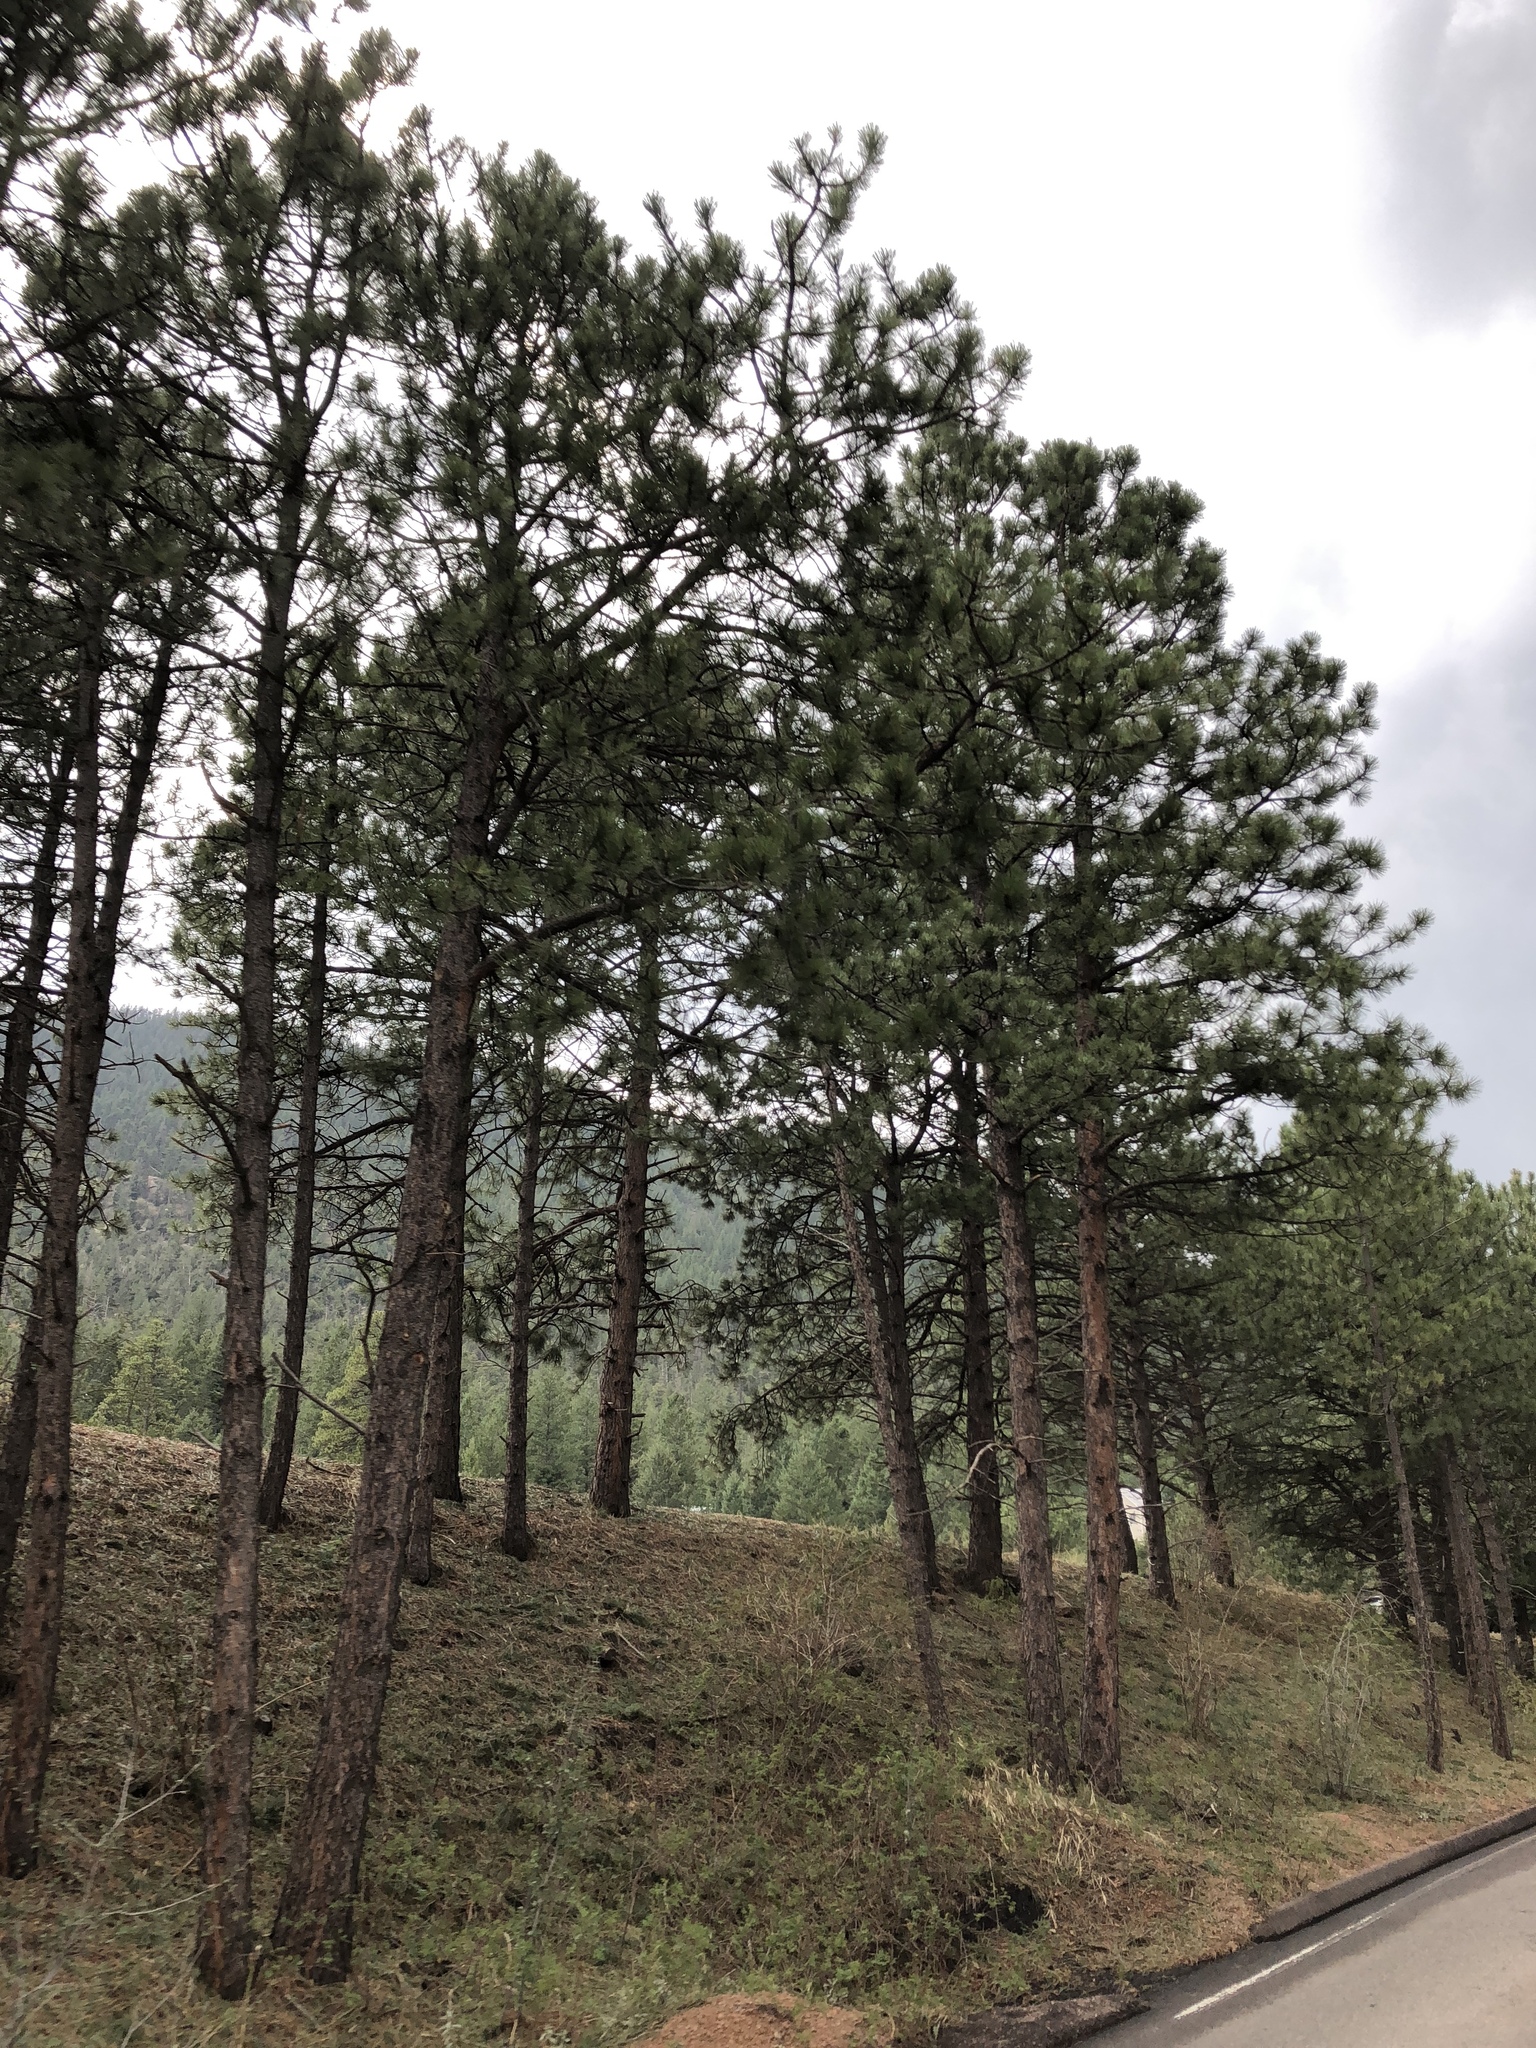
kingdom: Plantae
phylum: Tracheophyta
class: Pinopsida
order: Pinales
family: Pinaceae
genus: Pinus
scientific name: Pinus ponderosa
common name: Western yellow-pine
